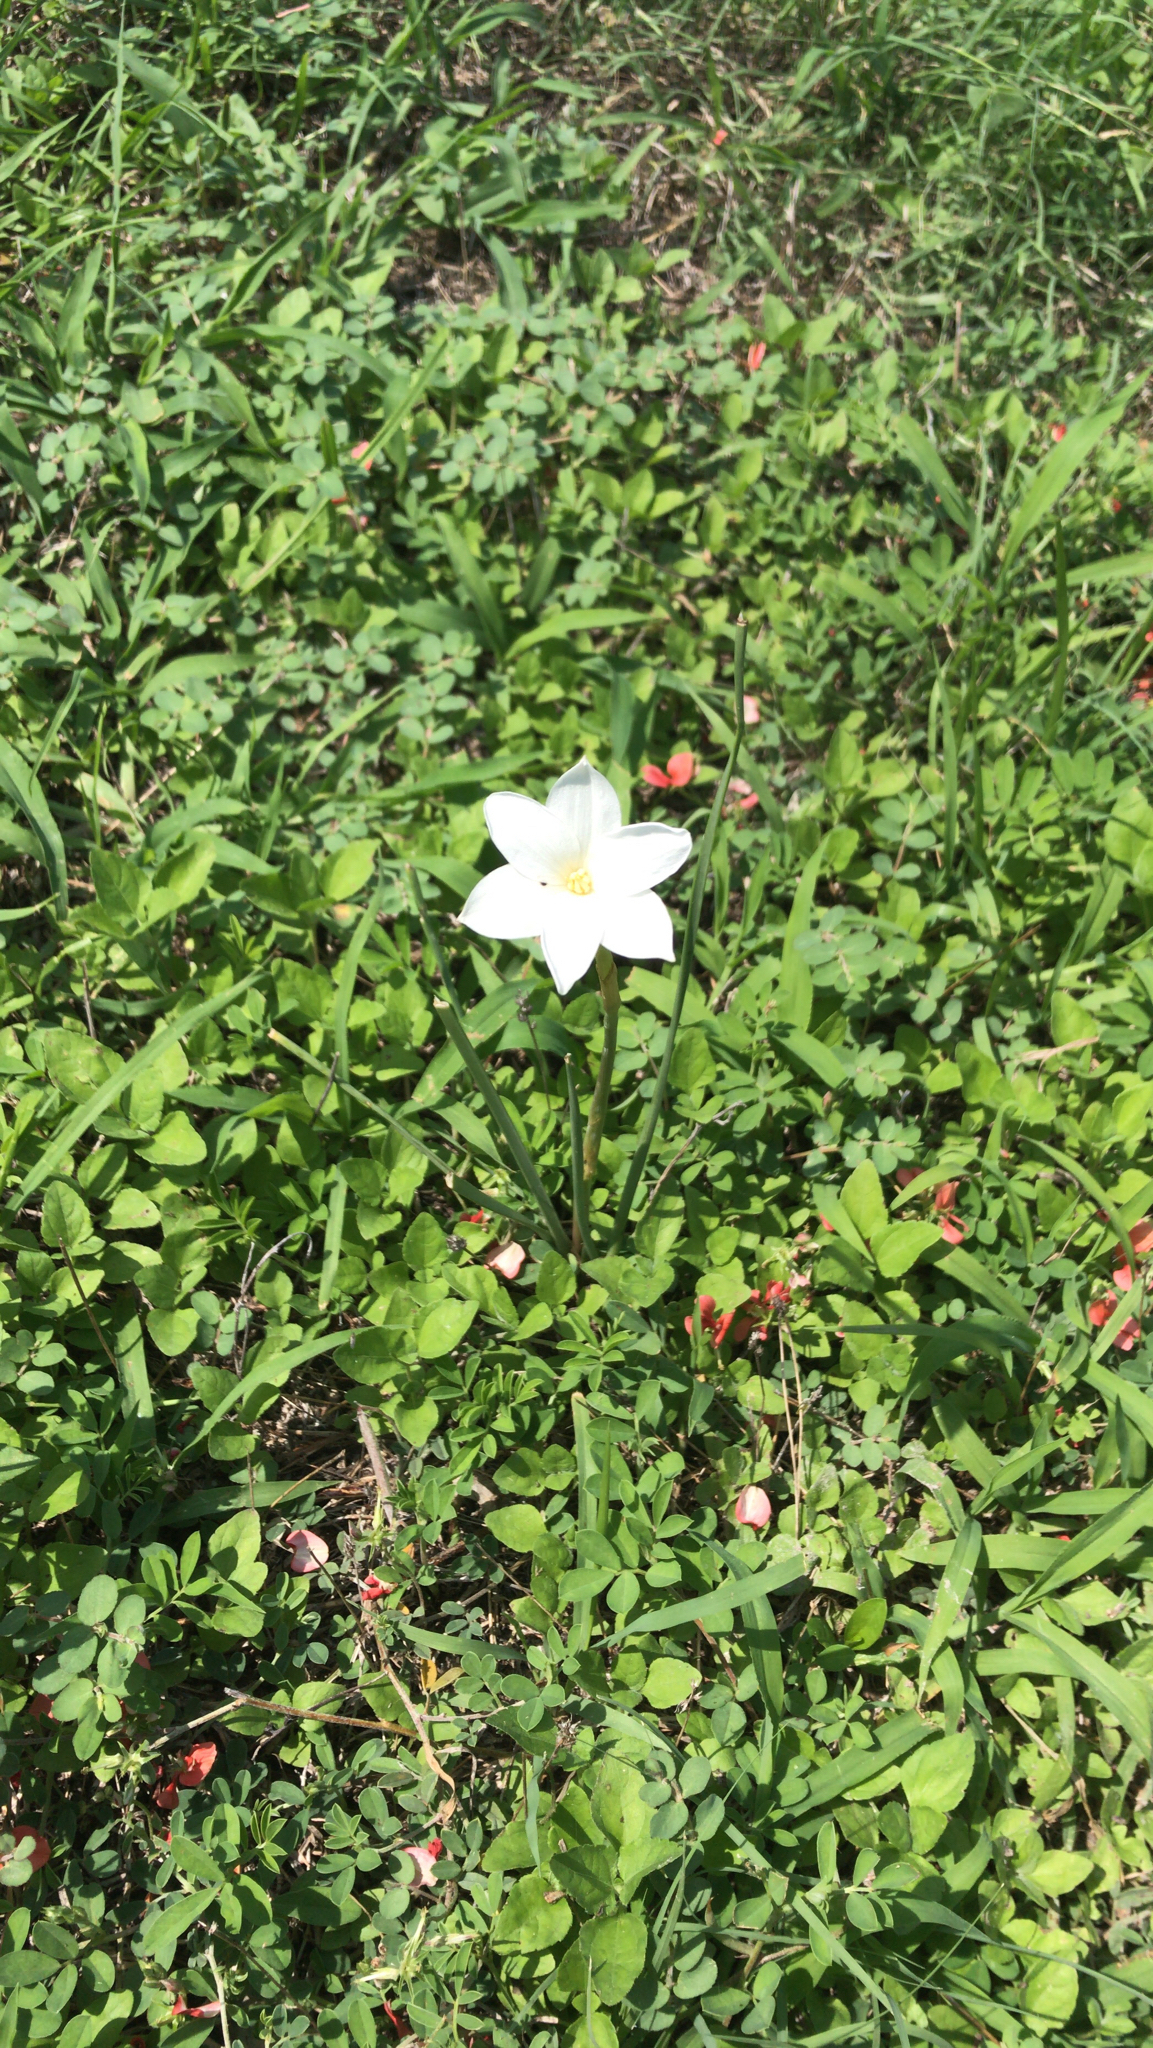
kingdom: Plantae
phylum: Tracheophyta
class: Liliopsida
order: Asparagales
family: Amaryllidaceae
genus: Zephyranthes
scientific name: Zephyranthes chlorosolen
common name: Evening rain-lily
